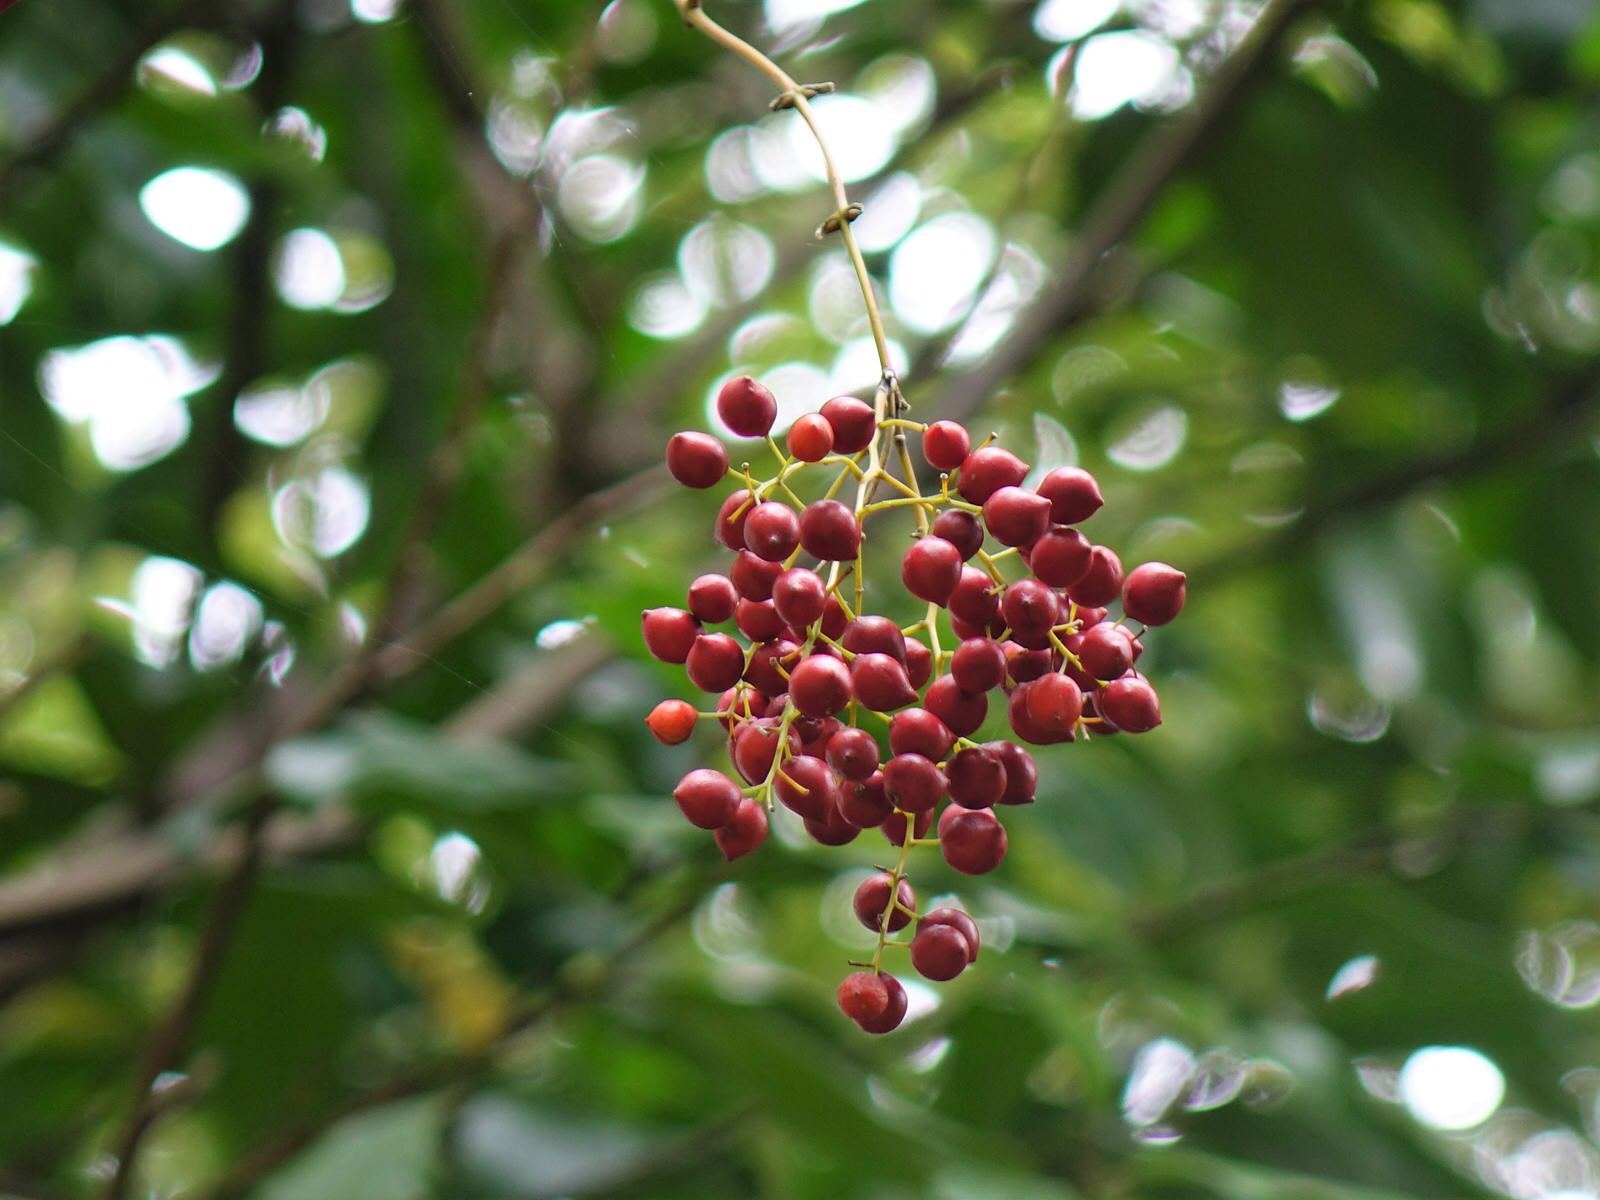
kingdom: Plantae
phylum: Tracheophyta
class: Liliopsida
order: Liliales
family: Ripogonaceae
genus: Ripogonum
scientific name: Ripogonum scandens
